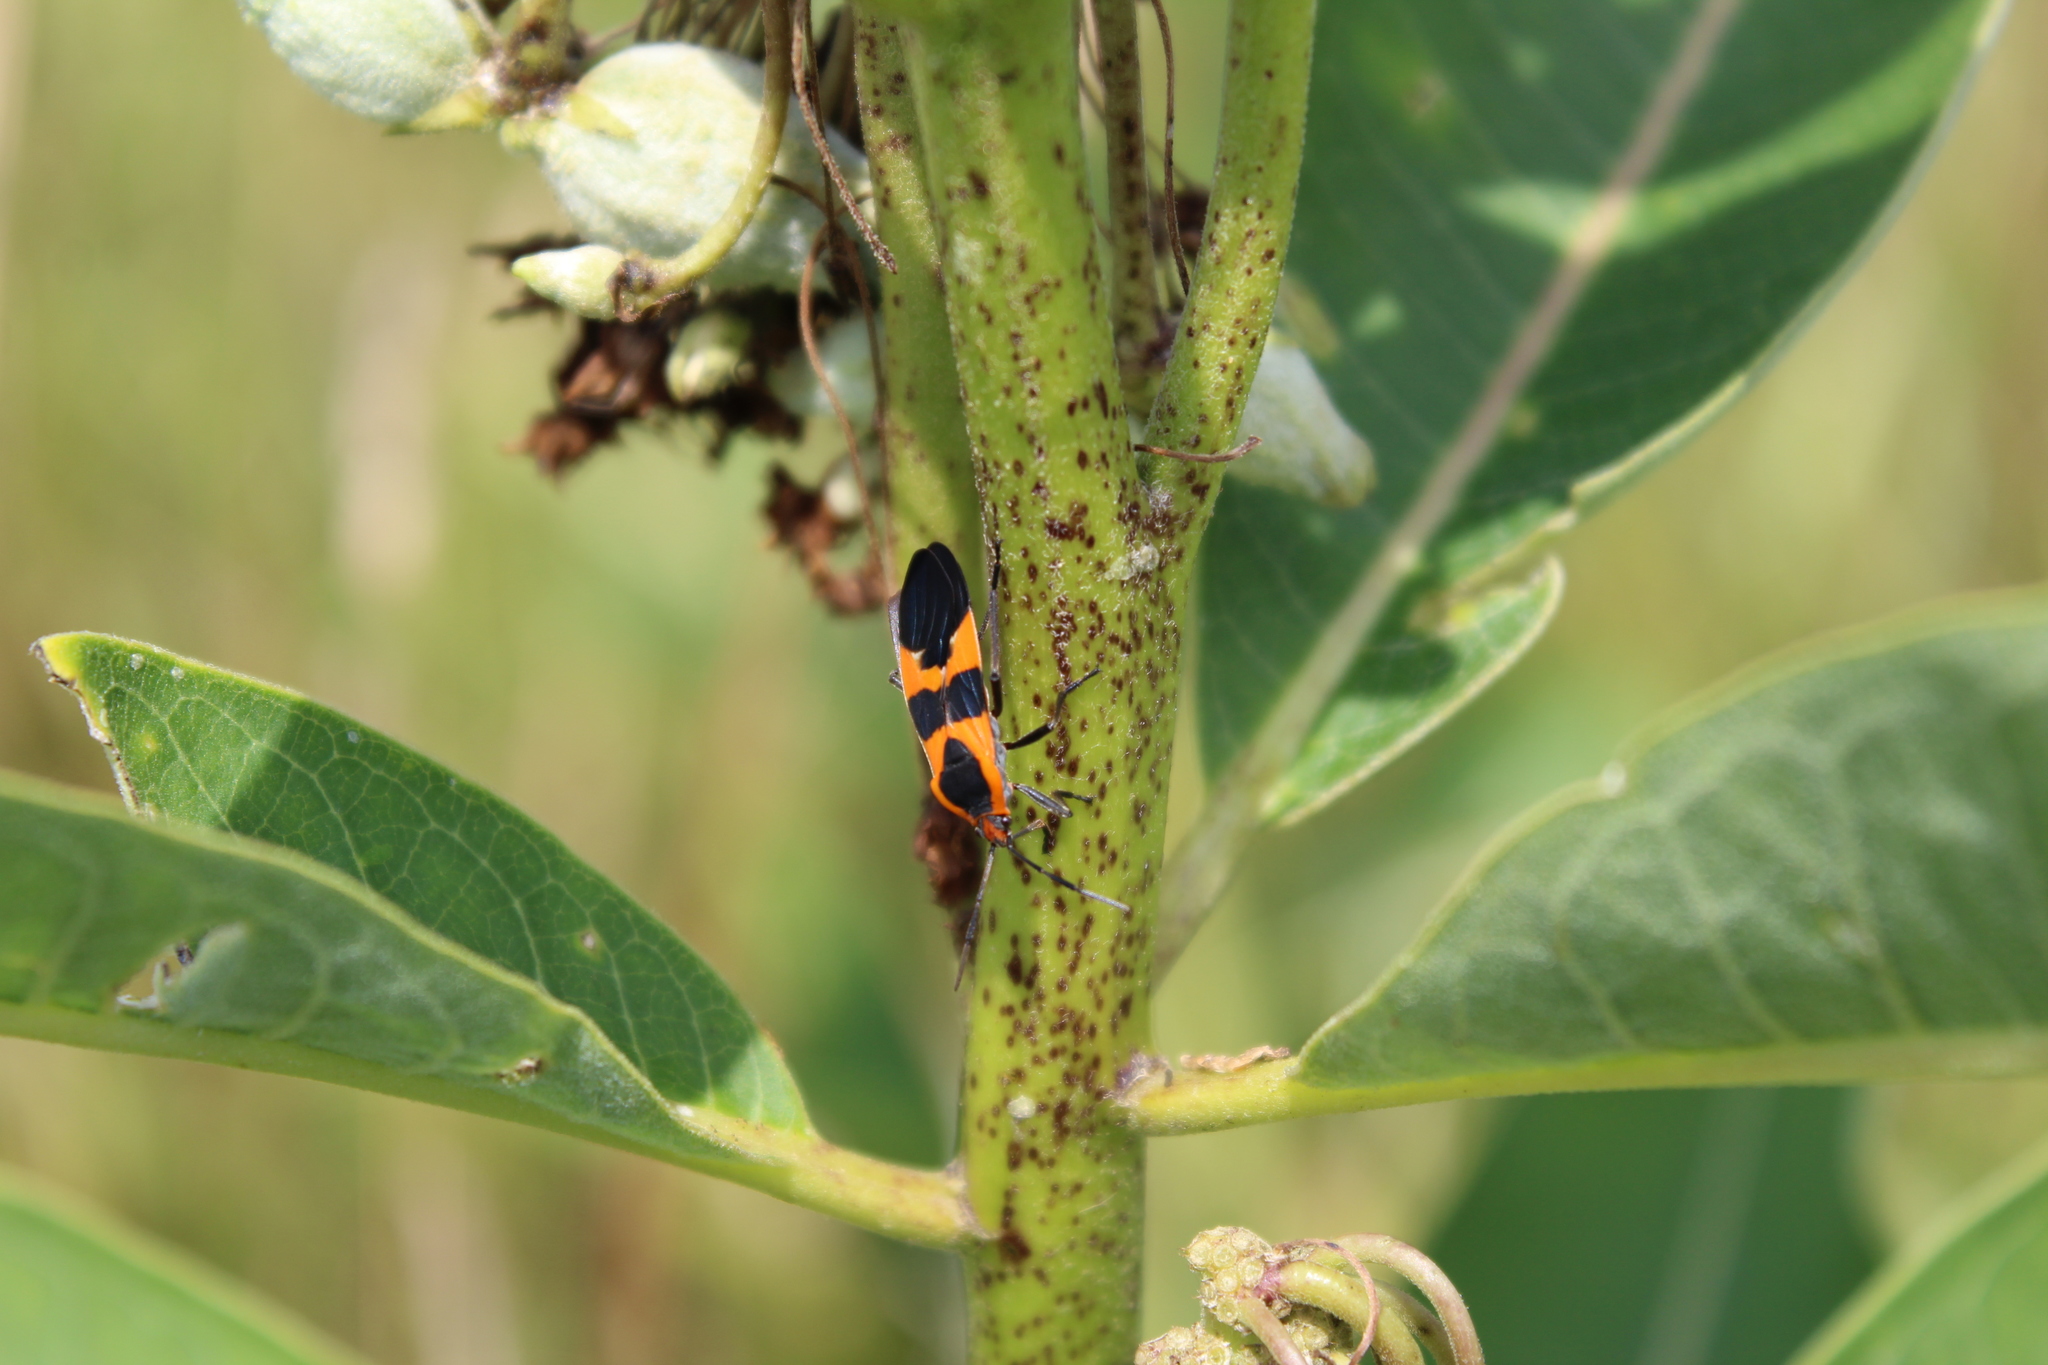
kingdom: Animalia
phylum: Arthropoda
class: Insecta
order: Hemiptera
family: Lygaeidae
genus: Oncopeltus
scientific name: Oncopeltus fasciatus
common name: Large milkweed bug
